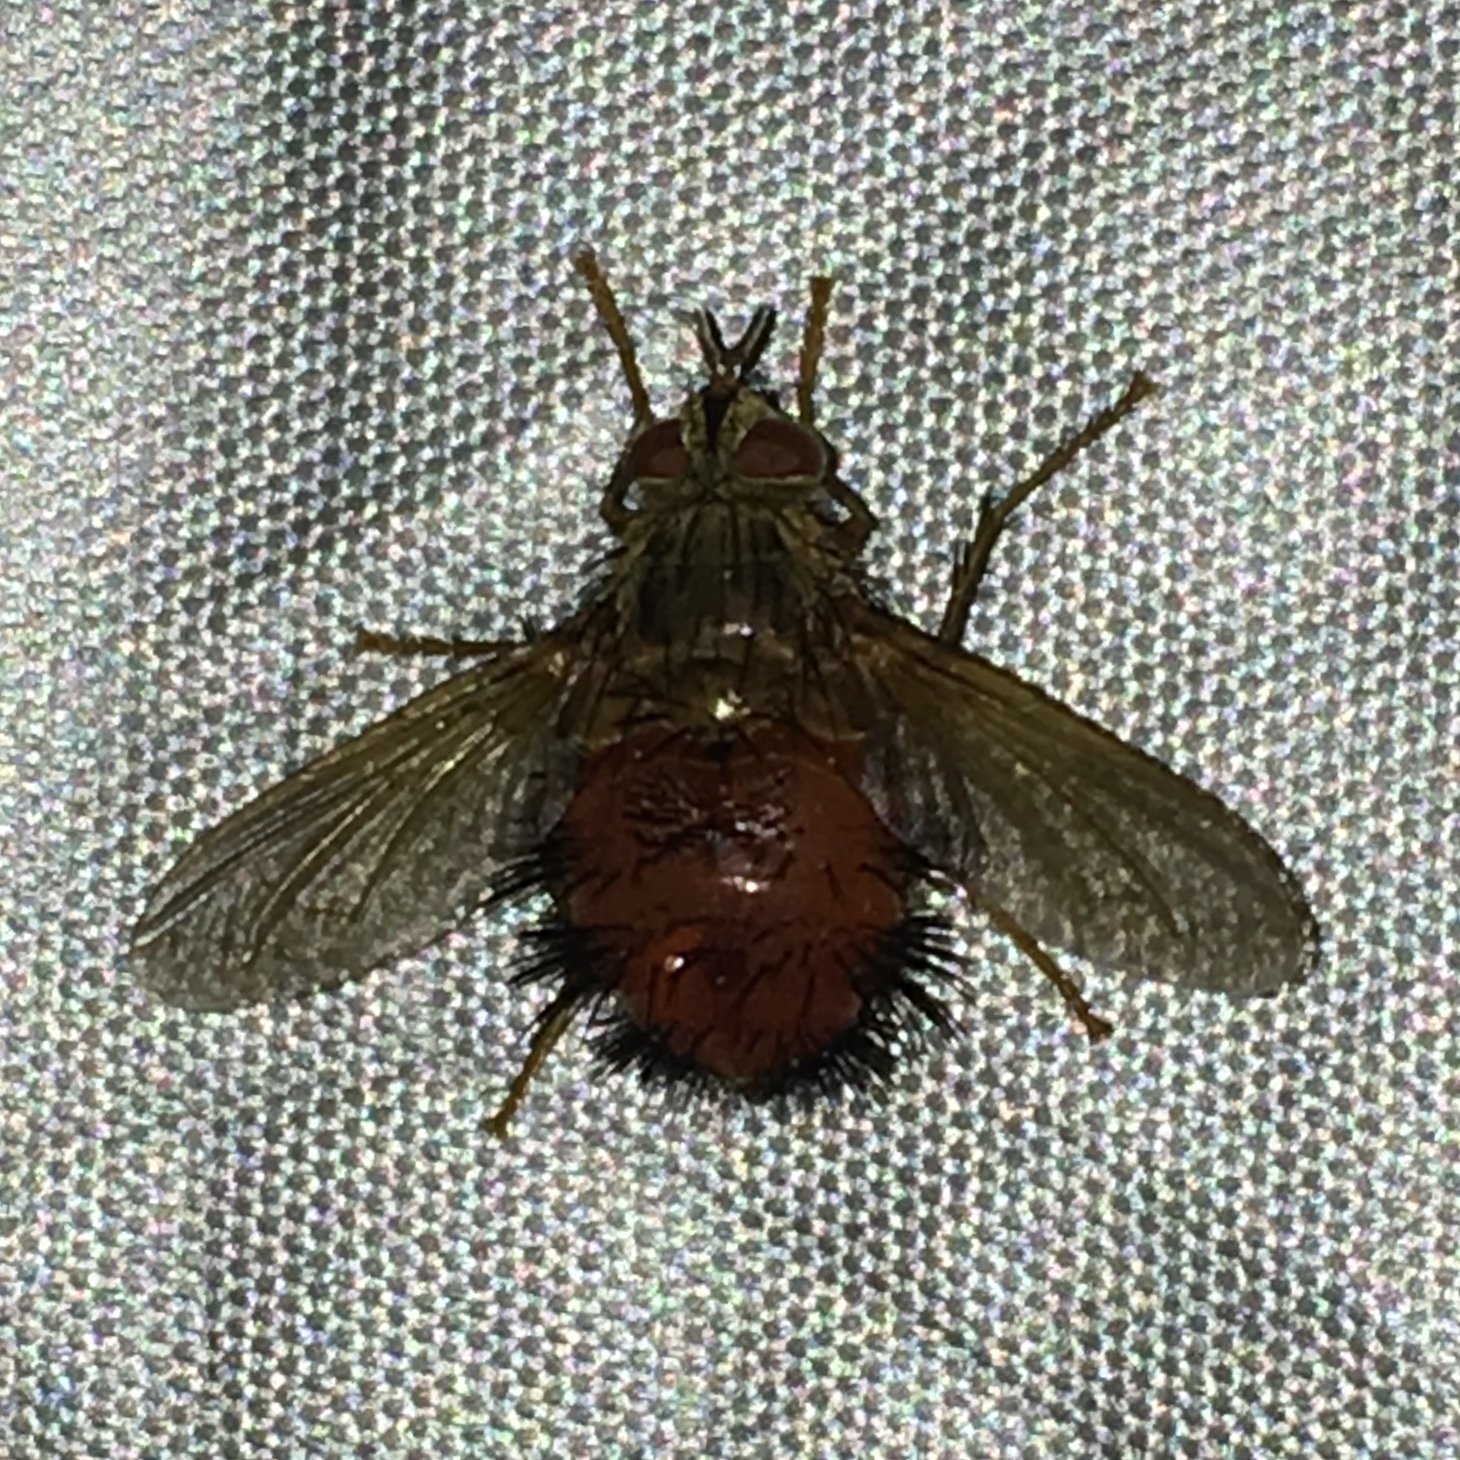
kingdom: Animalia
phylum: Arthropoda
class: Insecta
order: Diptera
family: Tachinidae
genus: Hystricia
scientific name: Hystricia abrupta
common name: Tomato bristle fly
